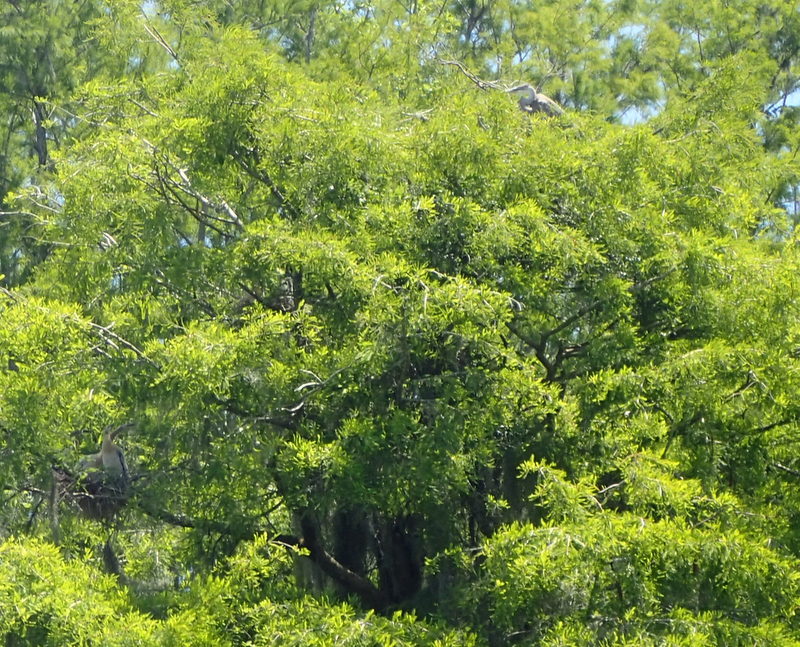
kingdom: Animalia
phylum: Chordata
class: Aves
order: Pelecaniformes
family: Ardeidae
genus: Ardea
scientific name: Ardea herodias
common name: Great blue heron
